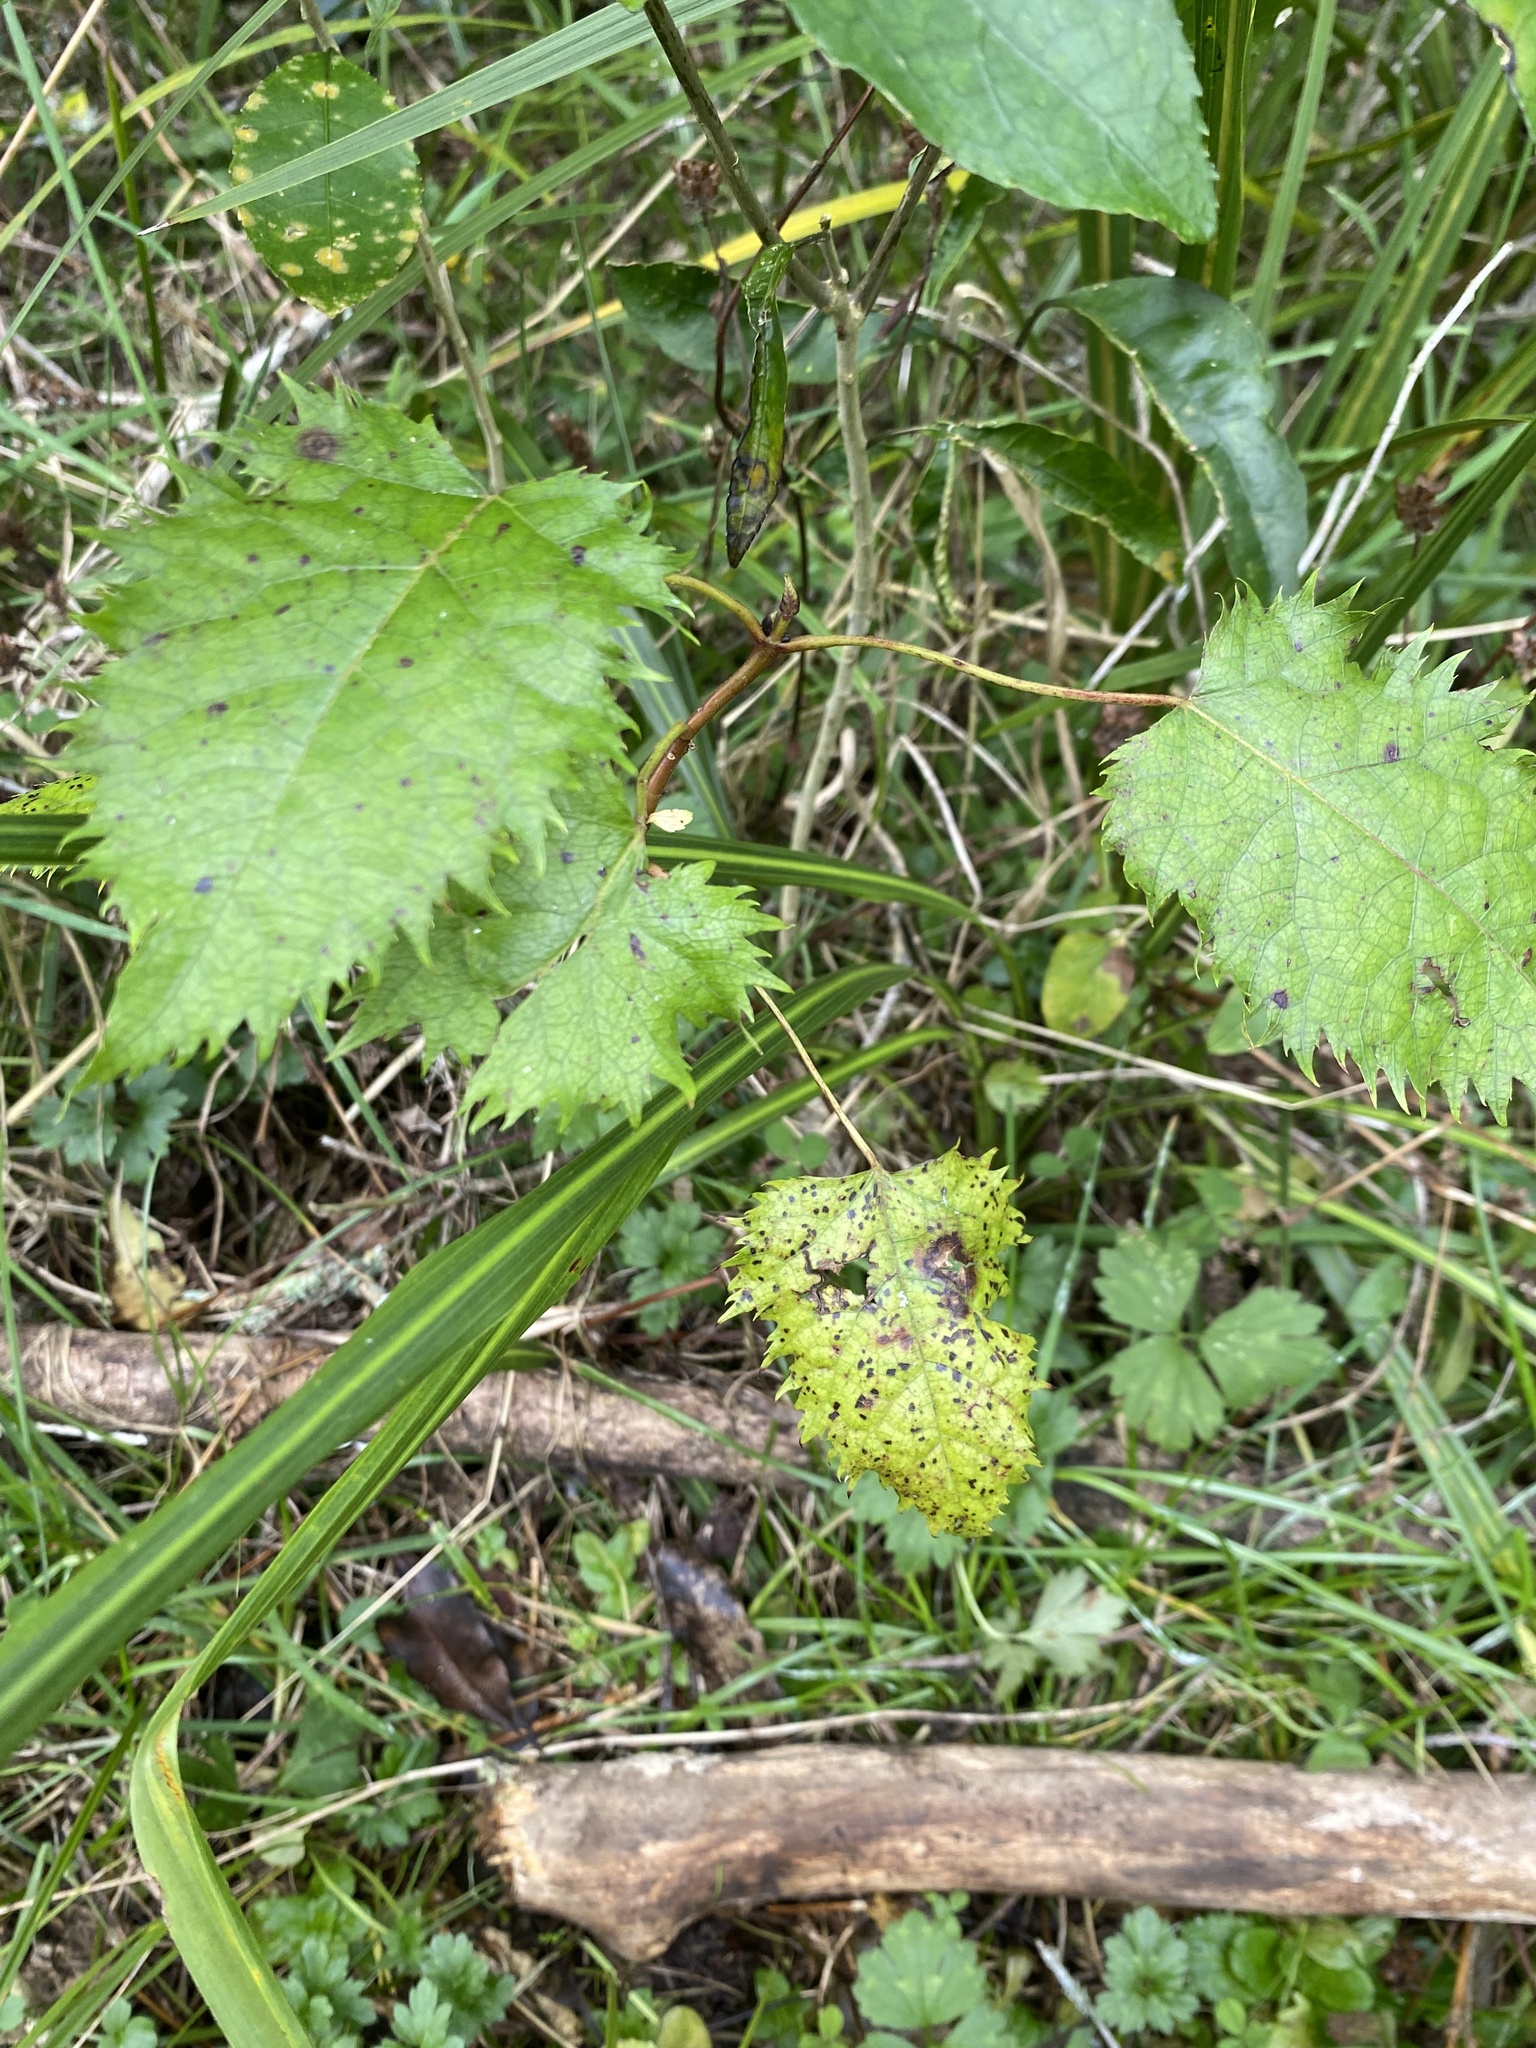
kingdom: Plantae
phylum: Tracheophyta
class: Magnoliopsida
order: Oxalidales
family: Elaeocarpaceae
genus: Aristotelia
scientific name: Aristotelia serrata
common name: New zealand wineberry
